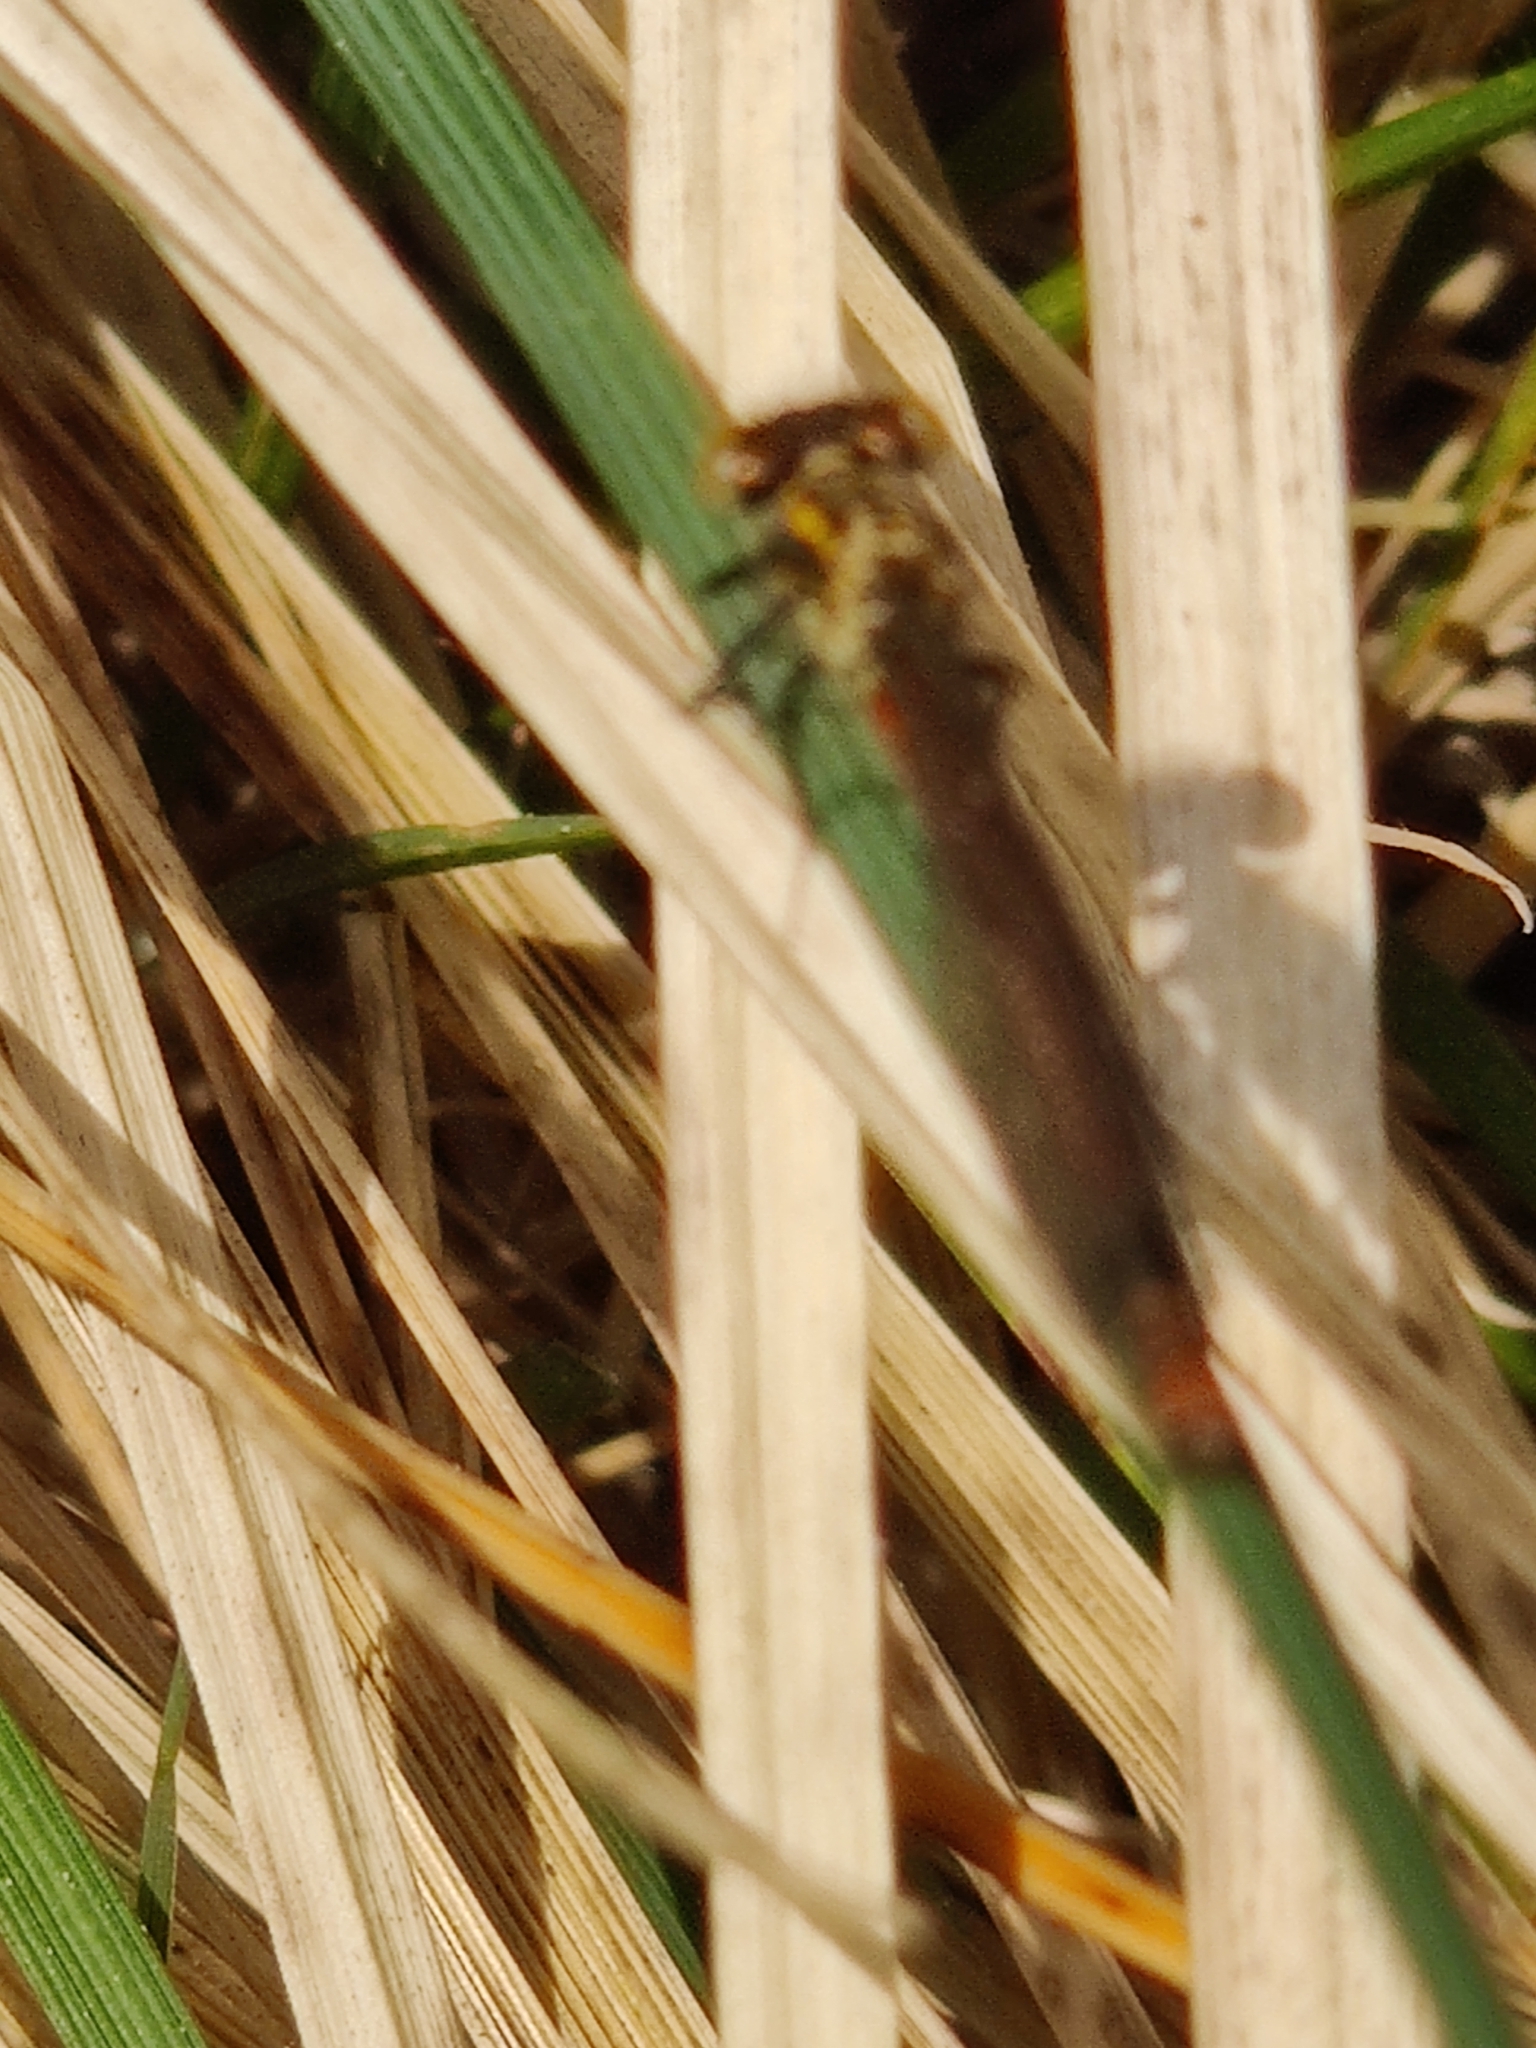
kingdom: Animalia
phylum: Arthropoda
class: Insecta
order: Odonata
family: Coenagrionidae
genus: Pyrrhosoma
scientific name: Pyrrhosoma nymphula
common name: Large red damsel
